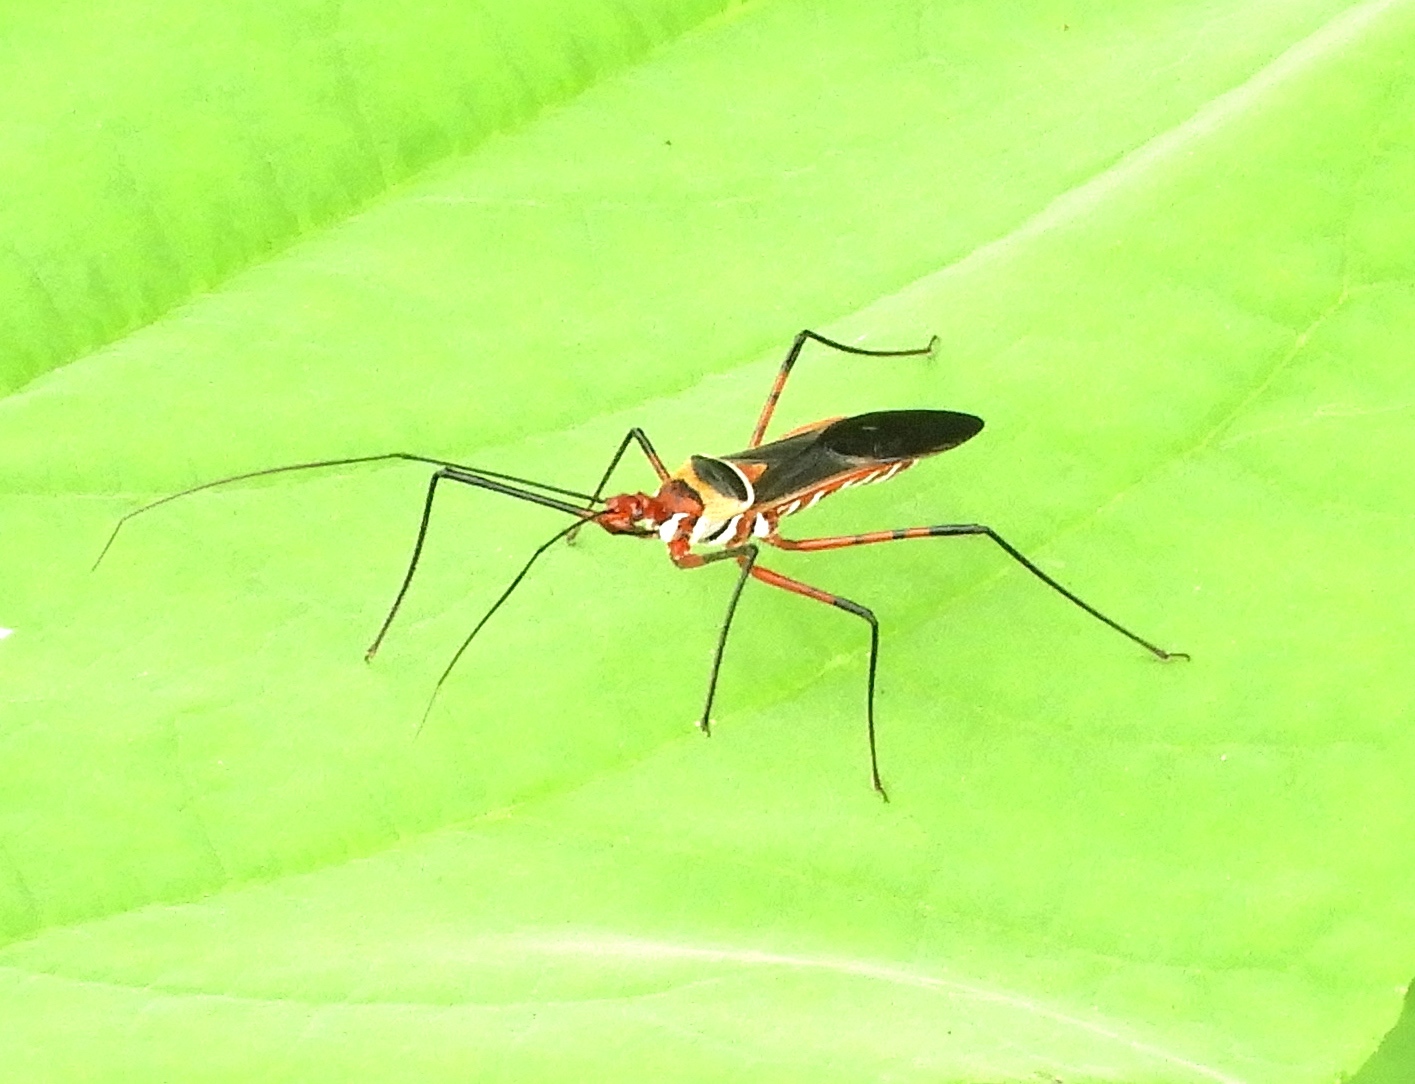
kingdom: Animalia
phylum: Arthropoda
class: Insecta
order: Hemiptera
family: Reduviidae
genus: Zelus
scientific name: Zelus grassans
